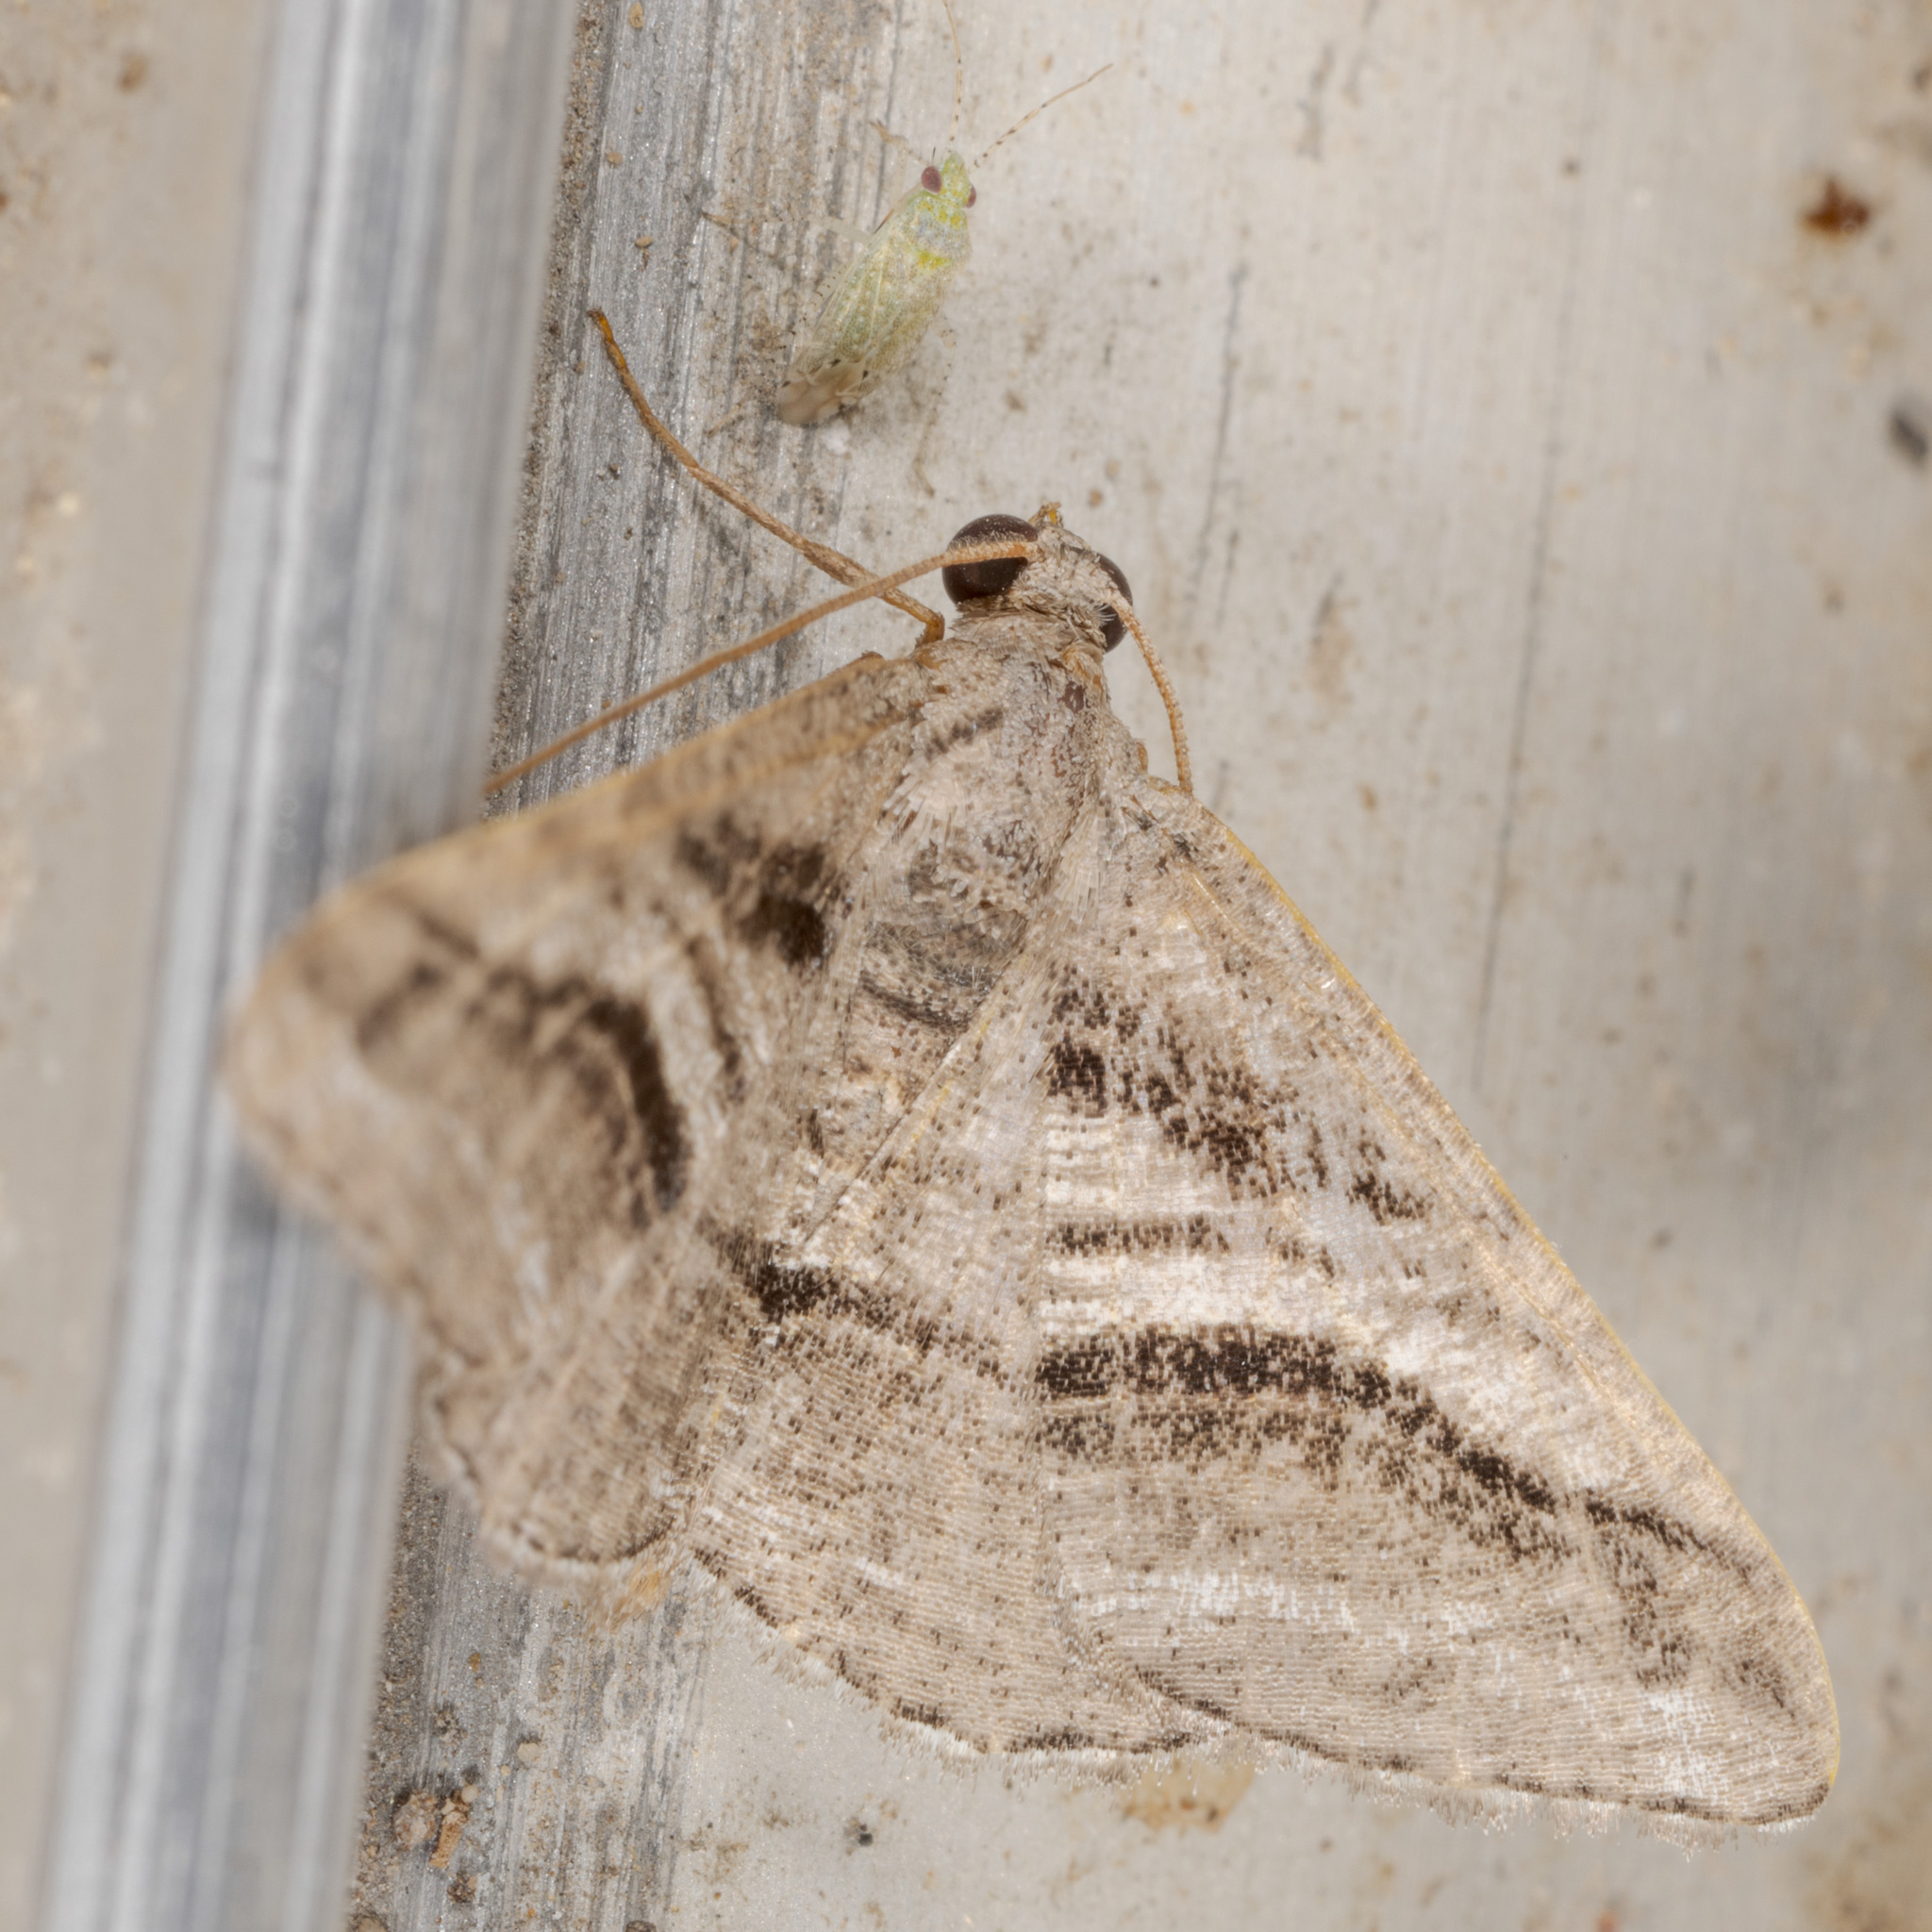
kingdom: Animalia
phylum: Arthropoda
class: Insecta
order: Lepidoptera
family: Geometridae
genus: Digrammia
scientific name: Digrammia atrofasciata
